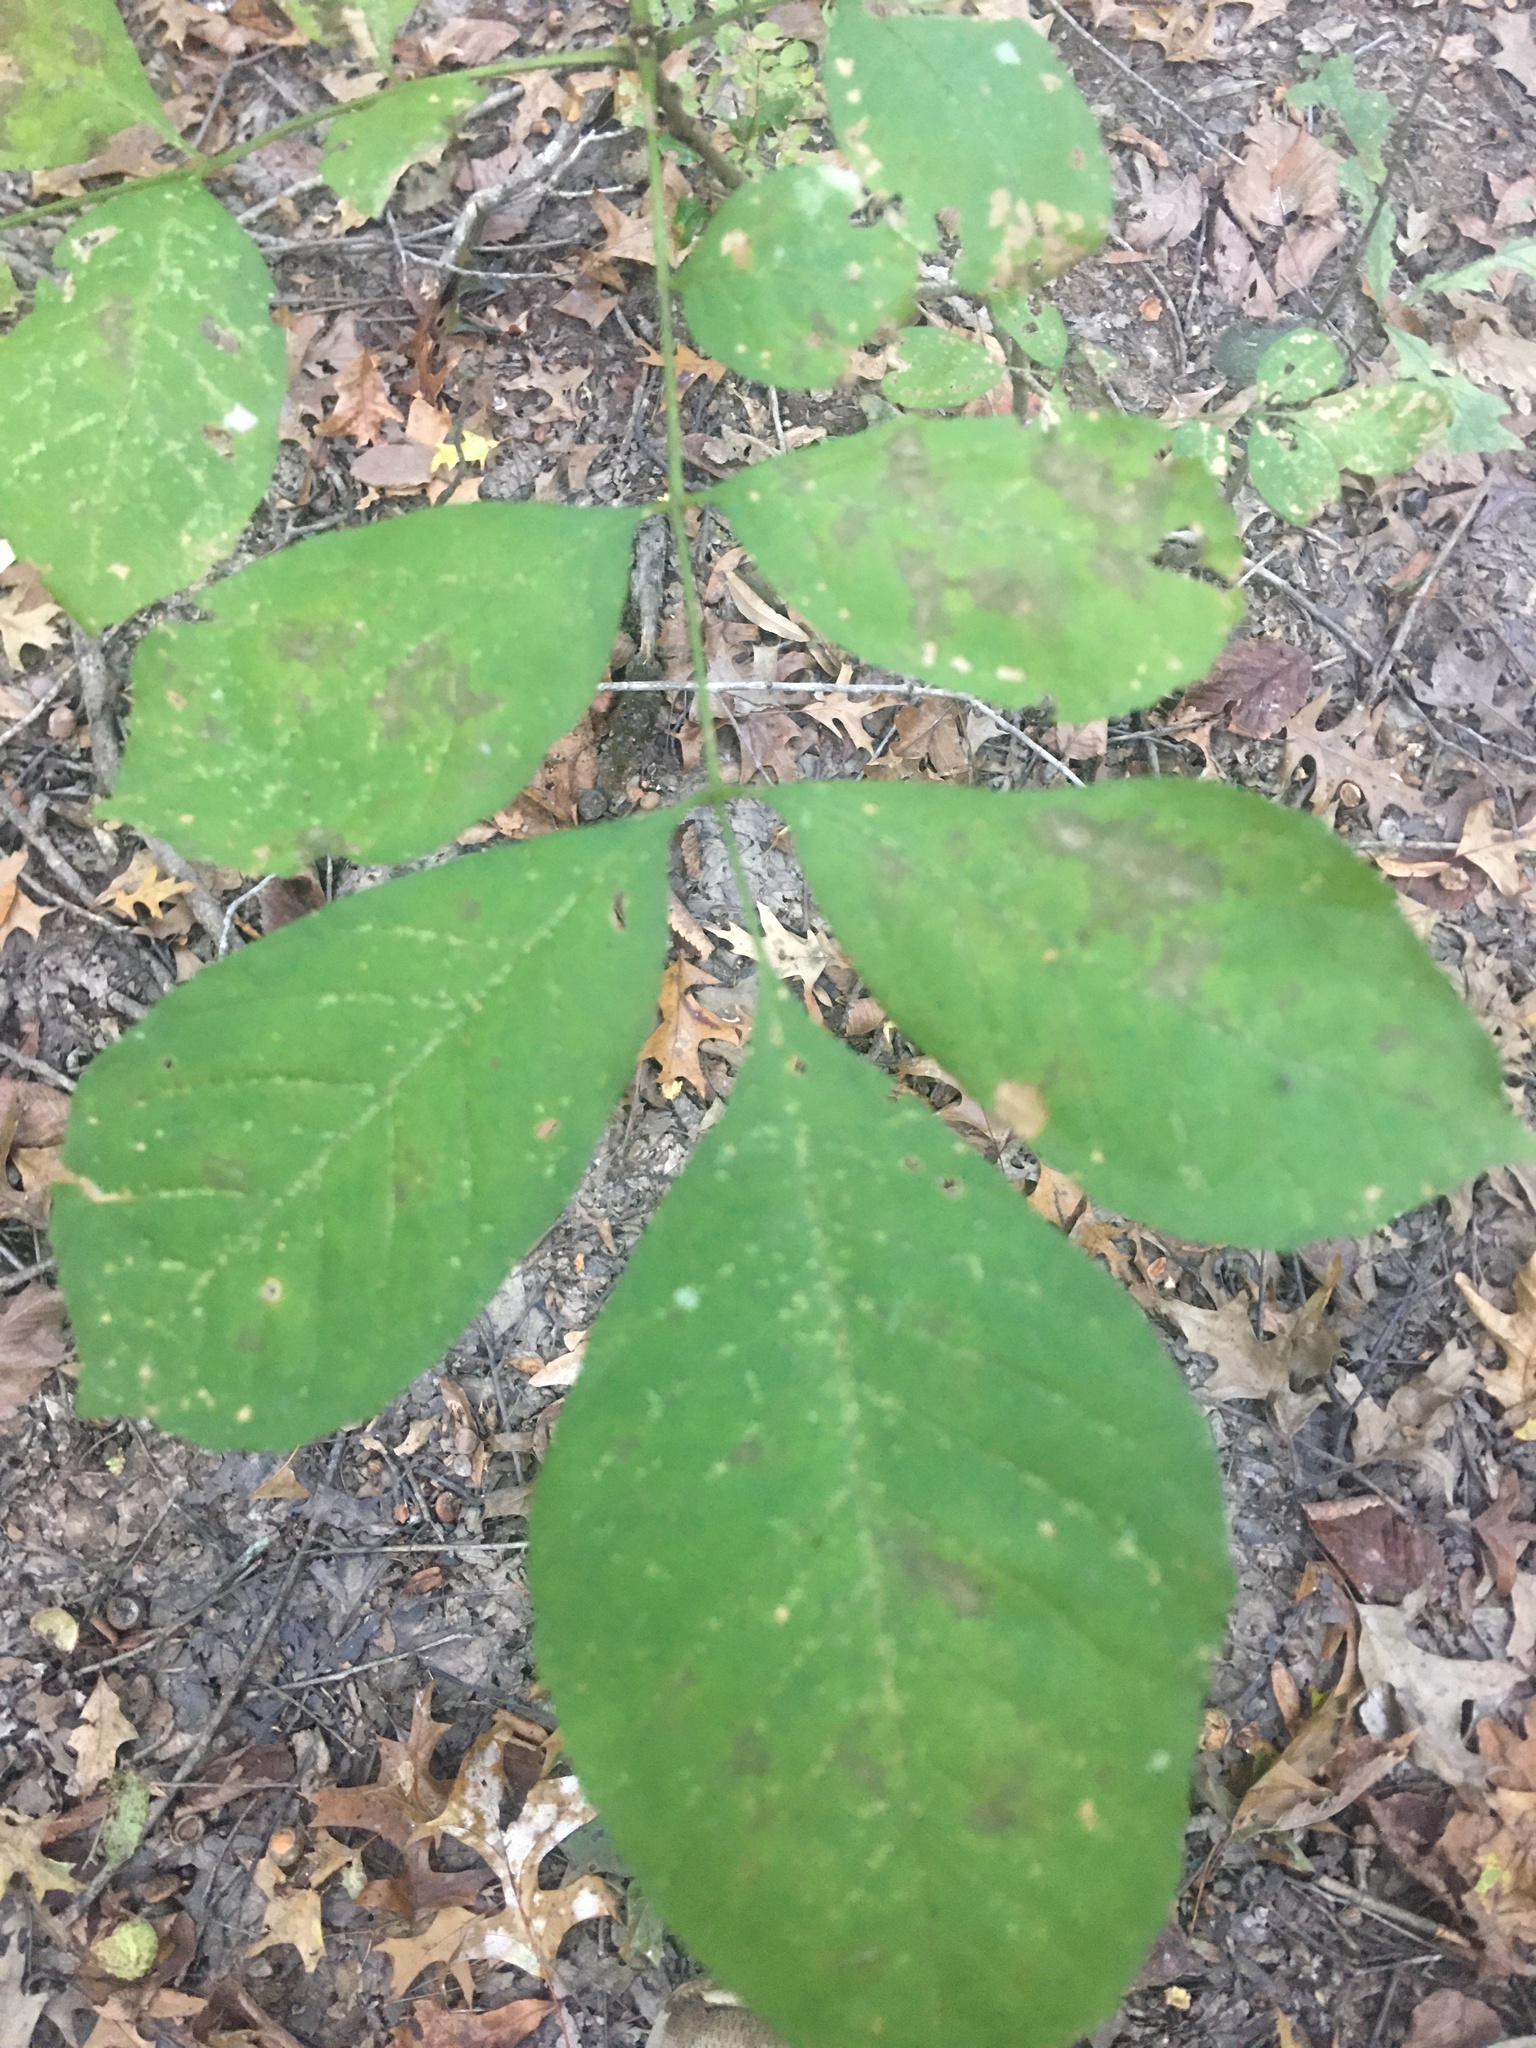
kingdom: Plantae
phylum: Tracheophyta
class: Magnoliopsida
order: Fagales
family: Juglandaceae
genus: Carya
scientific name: Carya glabra
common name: Pignut hickory
